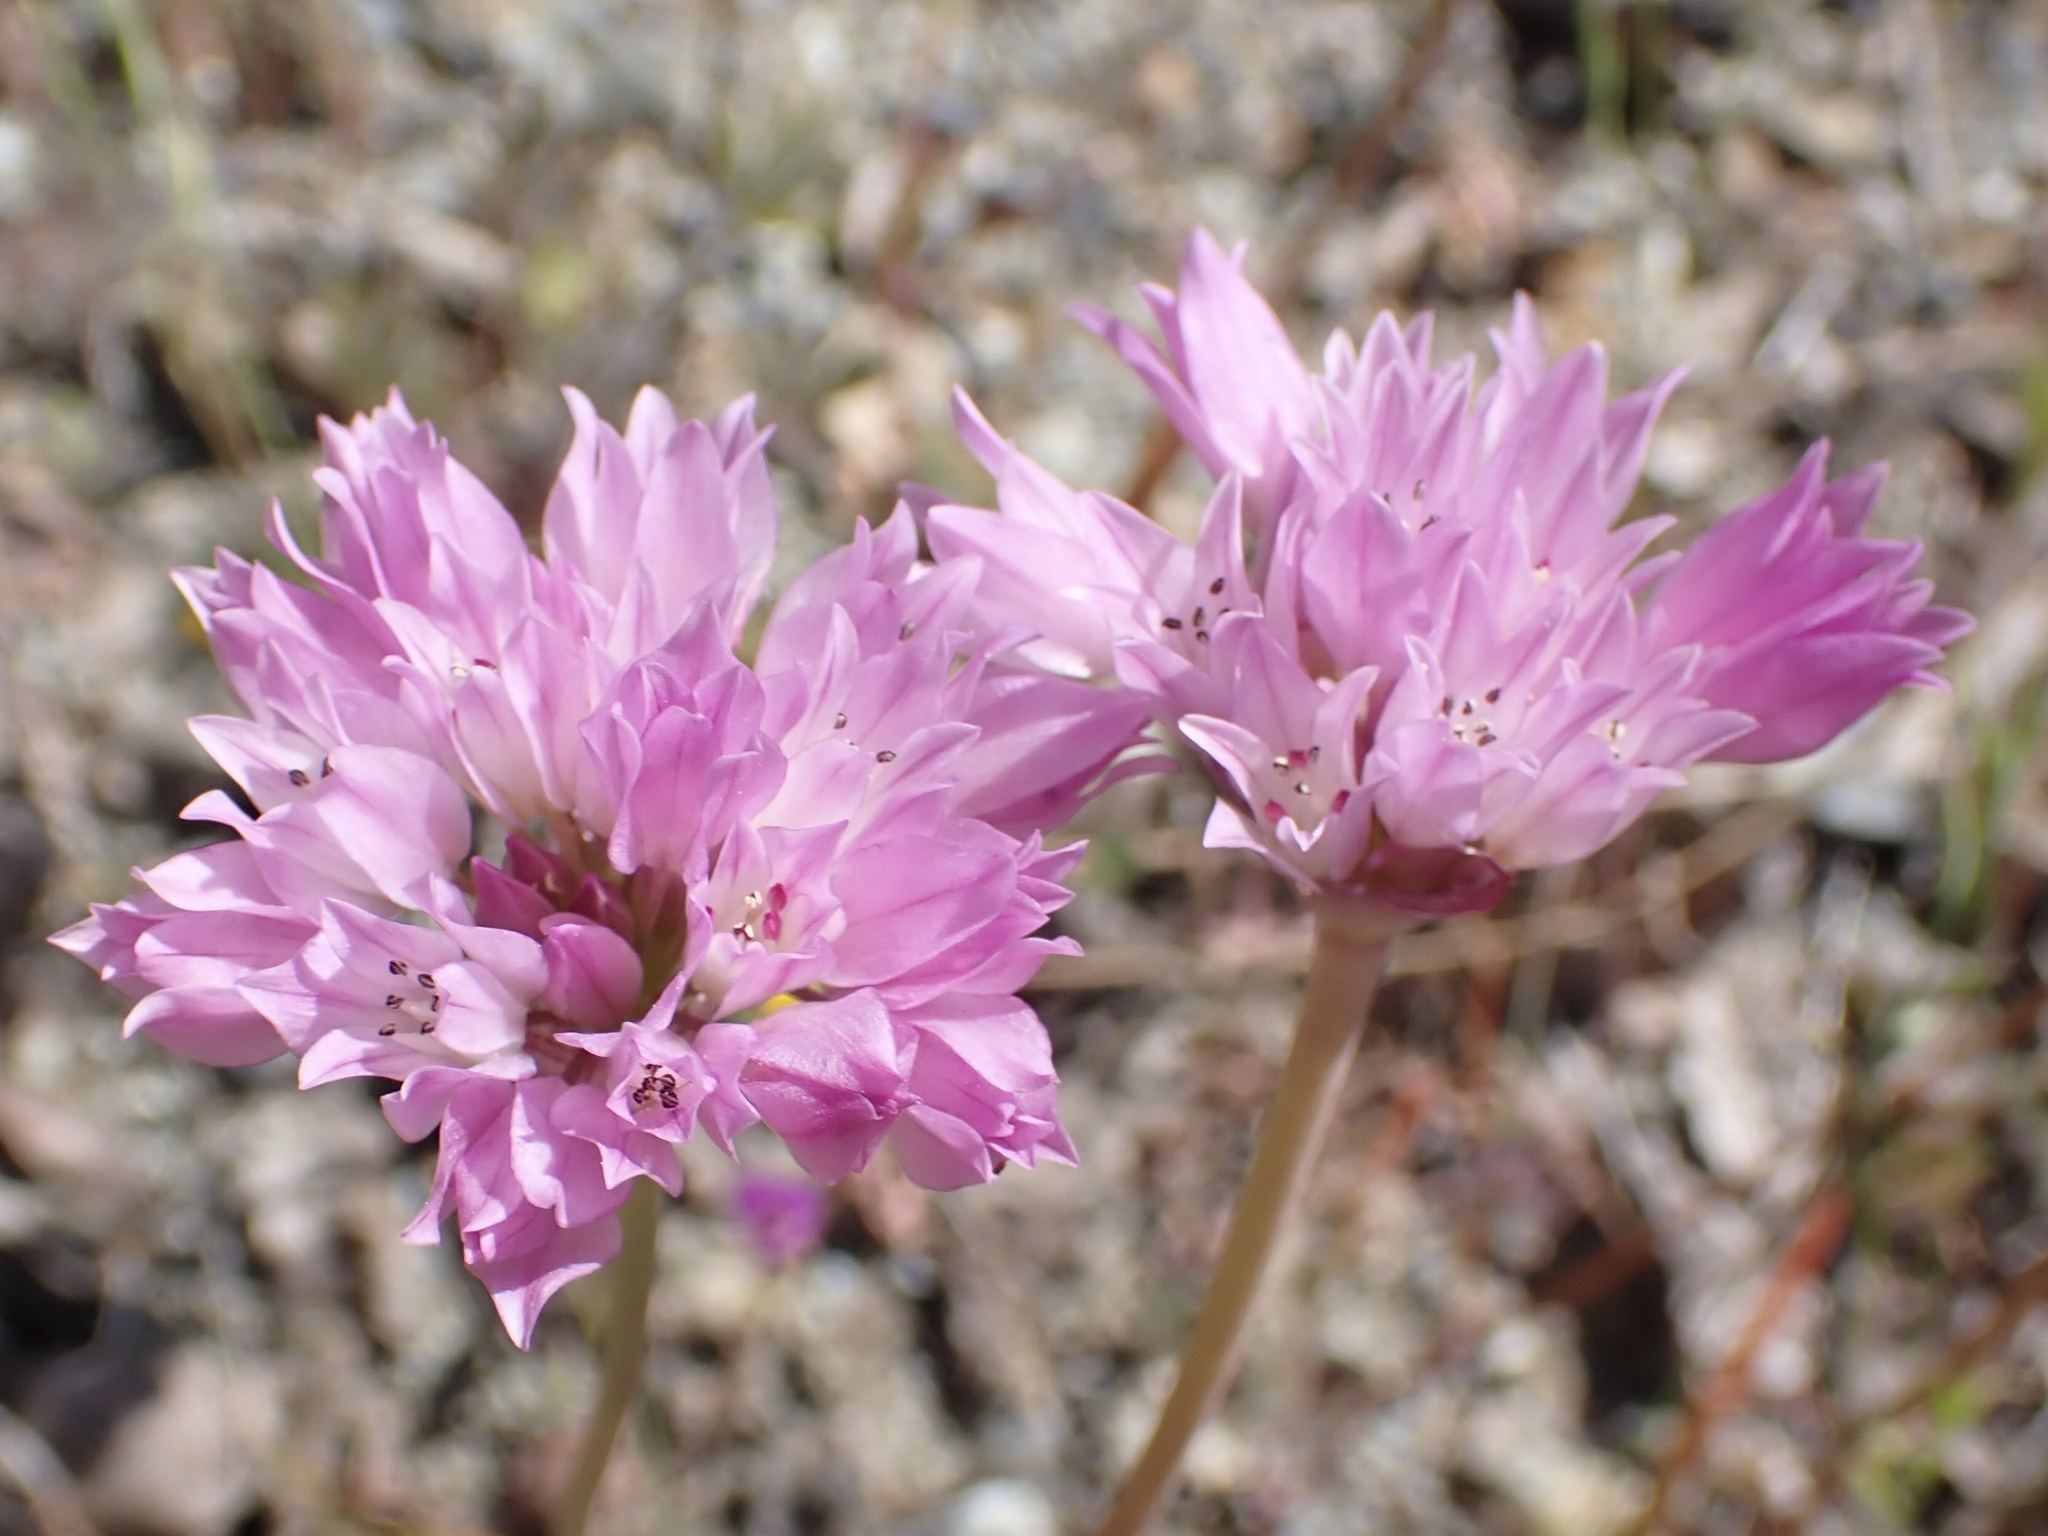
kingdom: Plantae
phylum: Tracheophyta
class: Liliopsida
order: Asparagales
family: Amaryllidaceae
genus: Allium
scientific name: Allium serra
